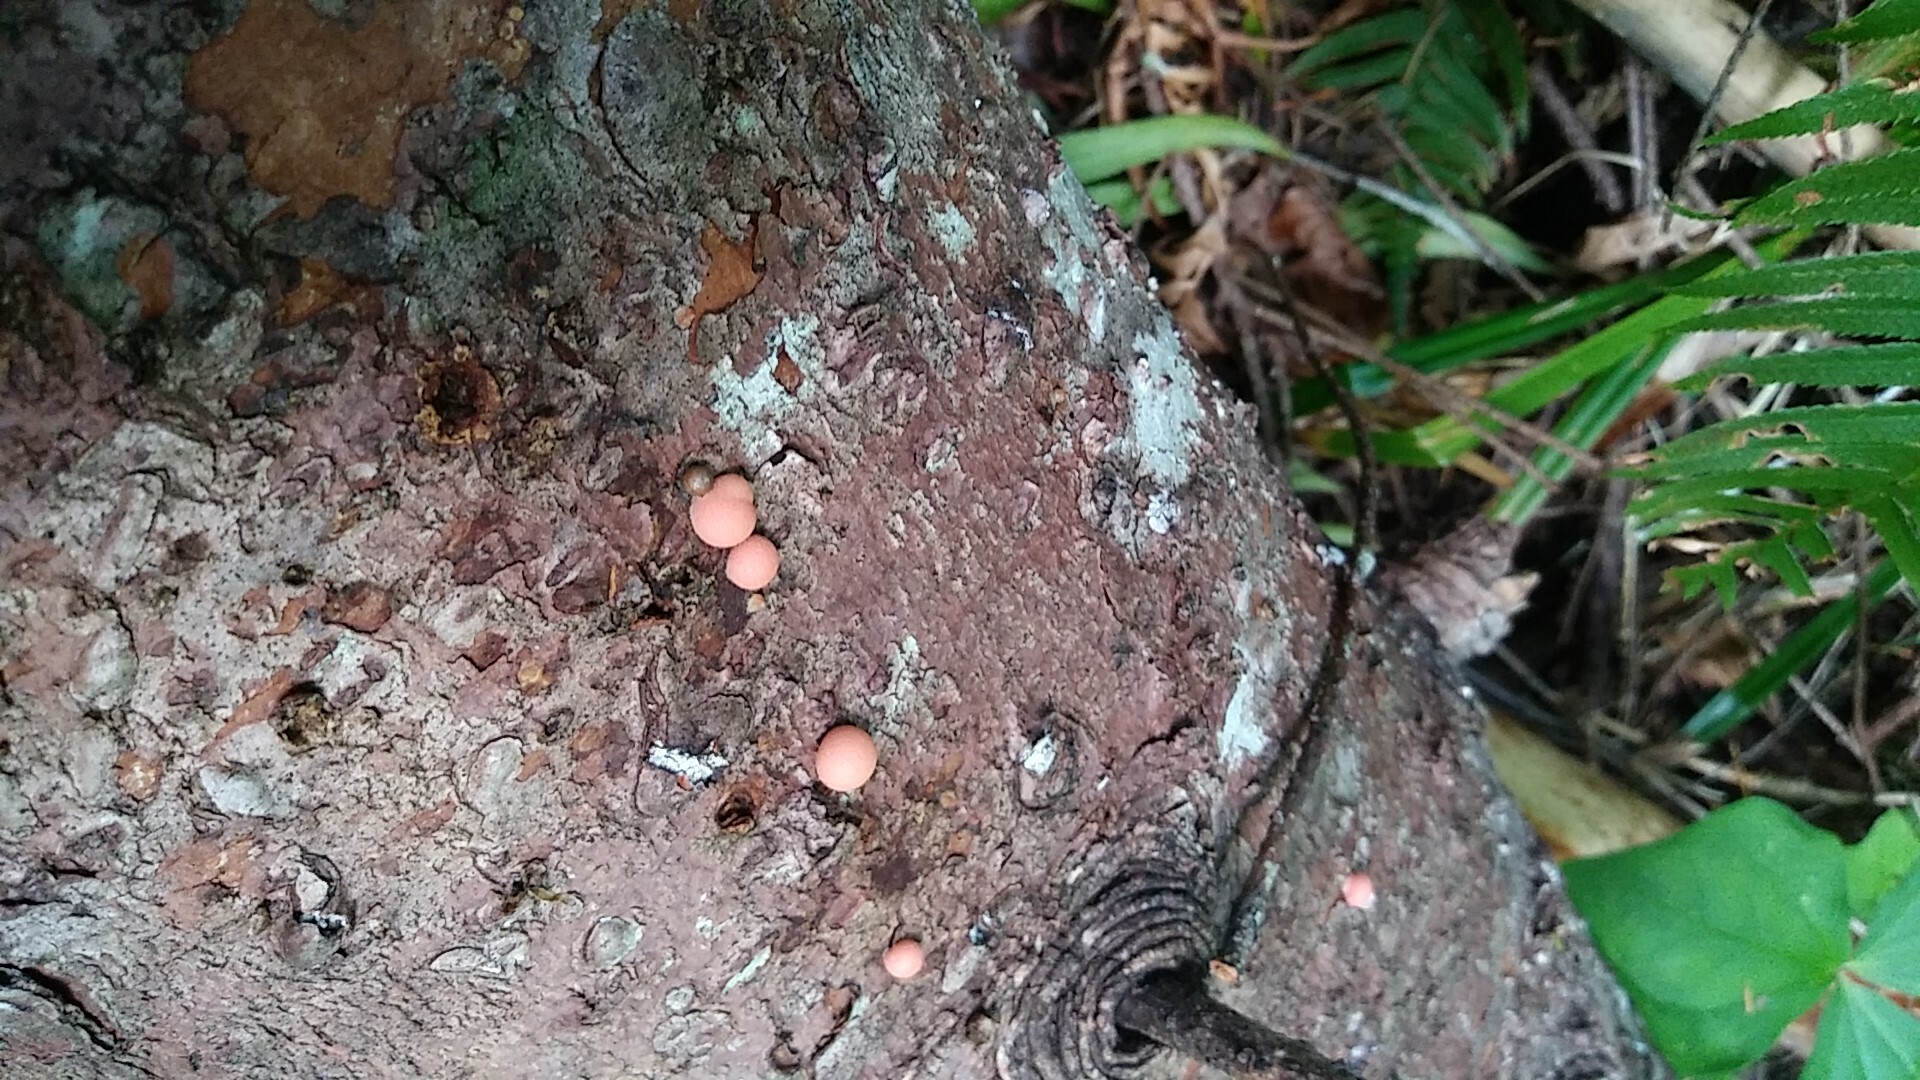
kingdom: Protozoa
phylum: Mycetozoa
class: Myxomycetes
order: Cribrariales
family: Tubiferaceae
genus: Lycogala
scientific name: Lycogala epidendrum
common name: Wolf's milk
